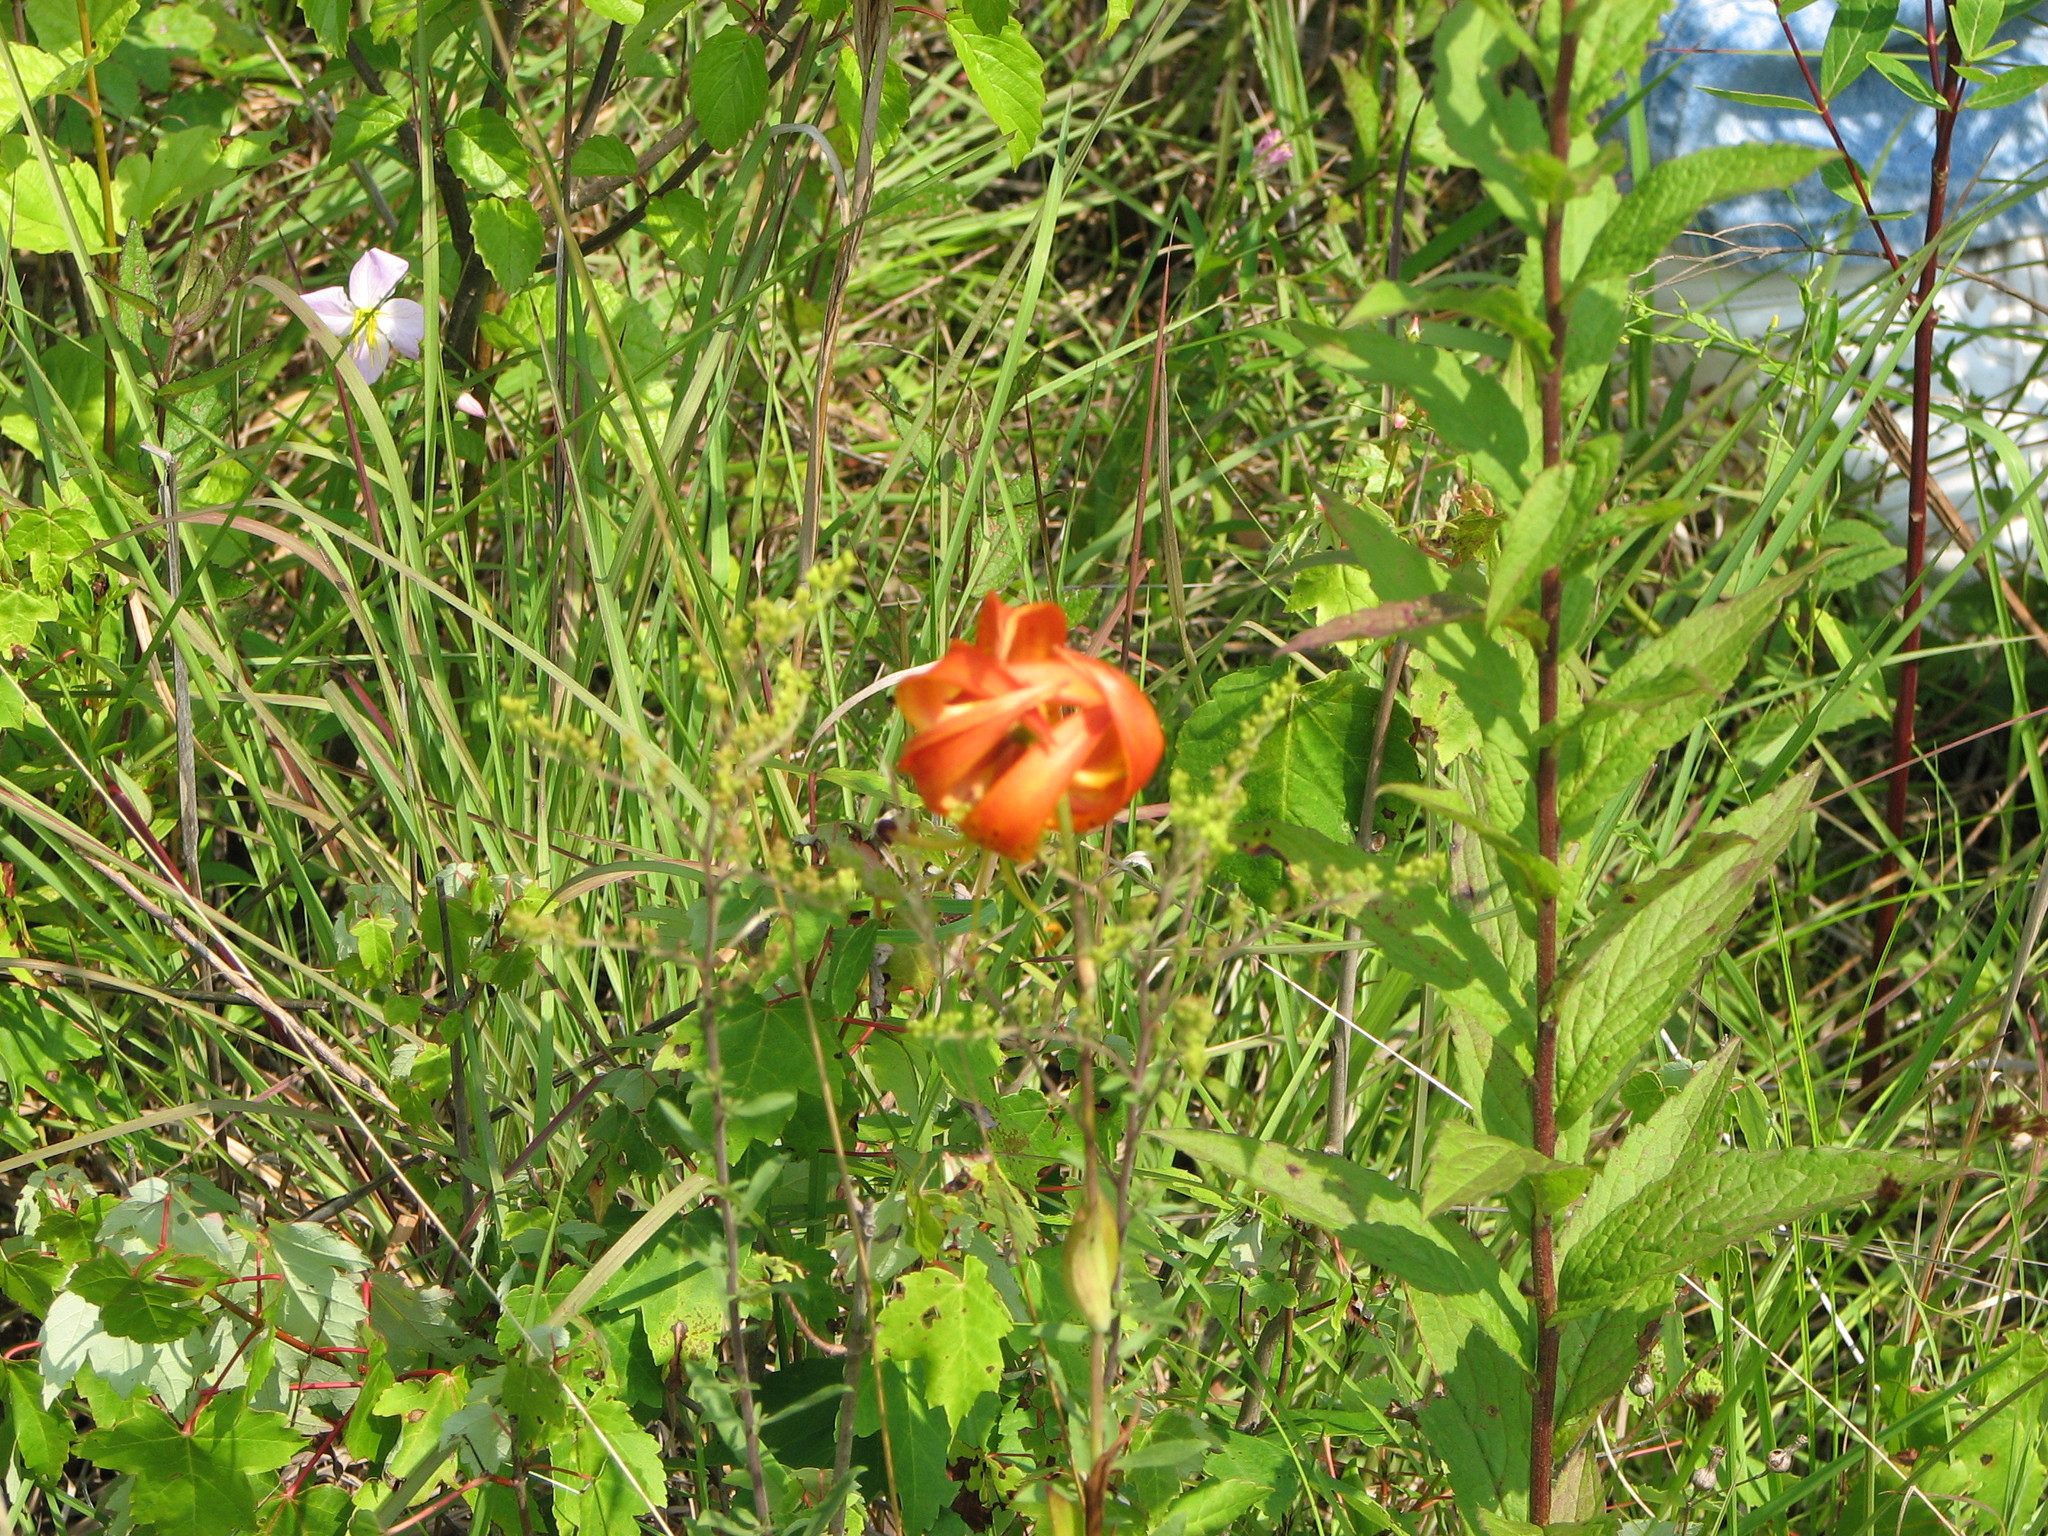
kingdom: Plantae
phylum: Tracheophyta
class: Liliopsida
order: Liliales
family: Liliaceae
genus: Lilium
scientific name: Lilium superbum
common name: American turk's-cap lily
